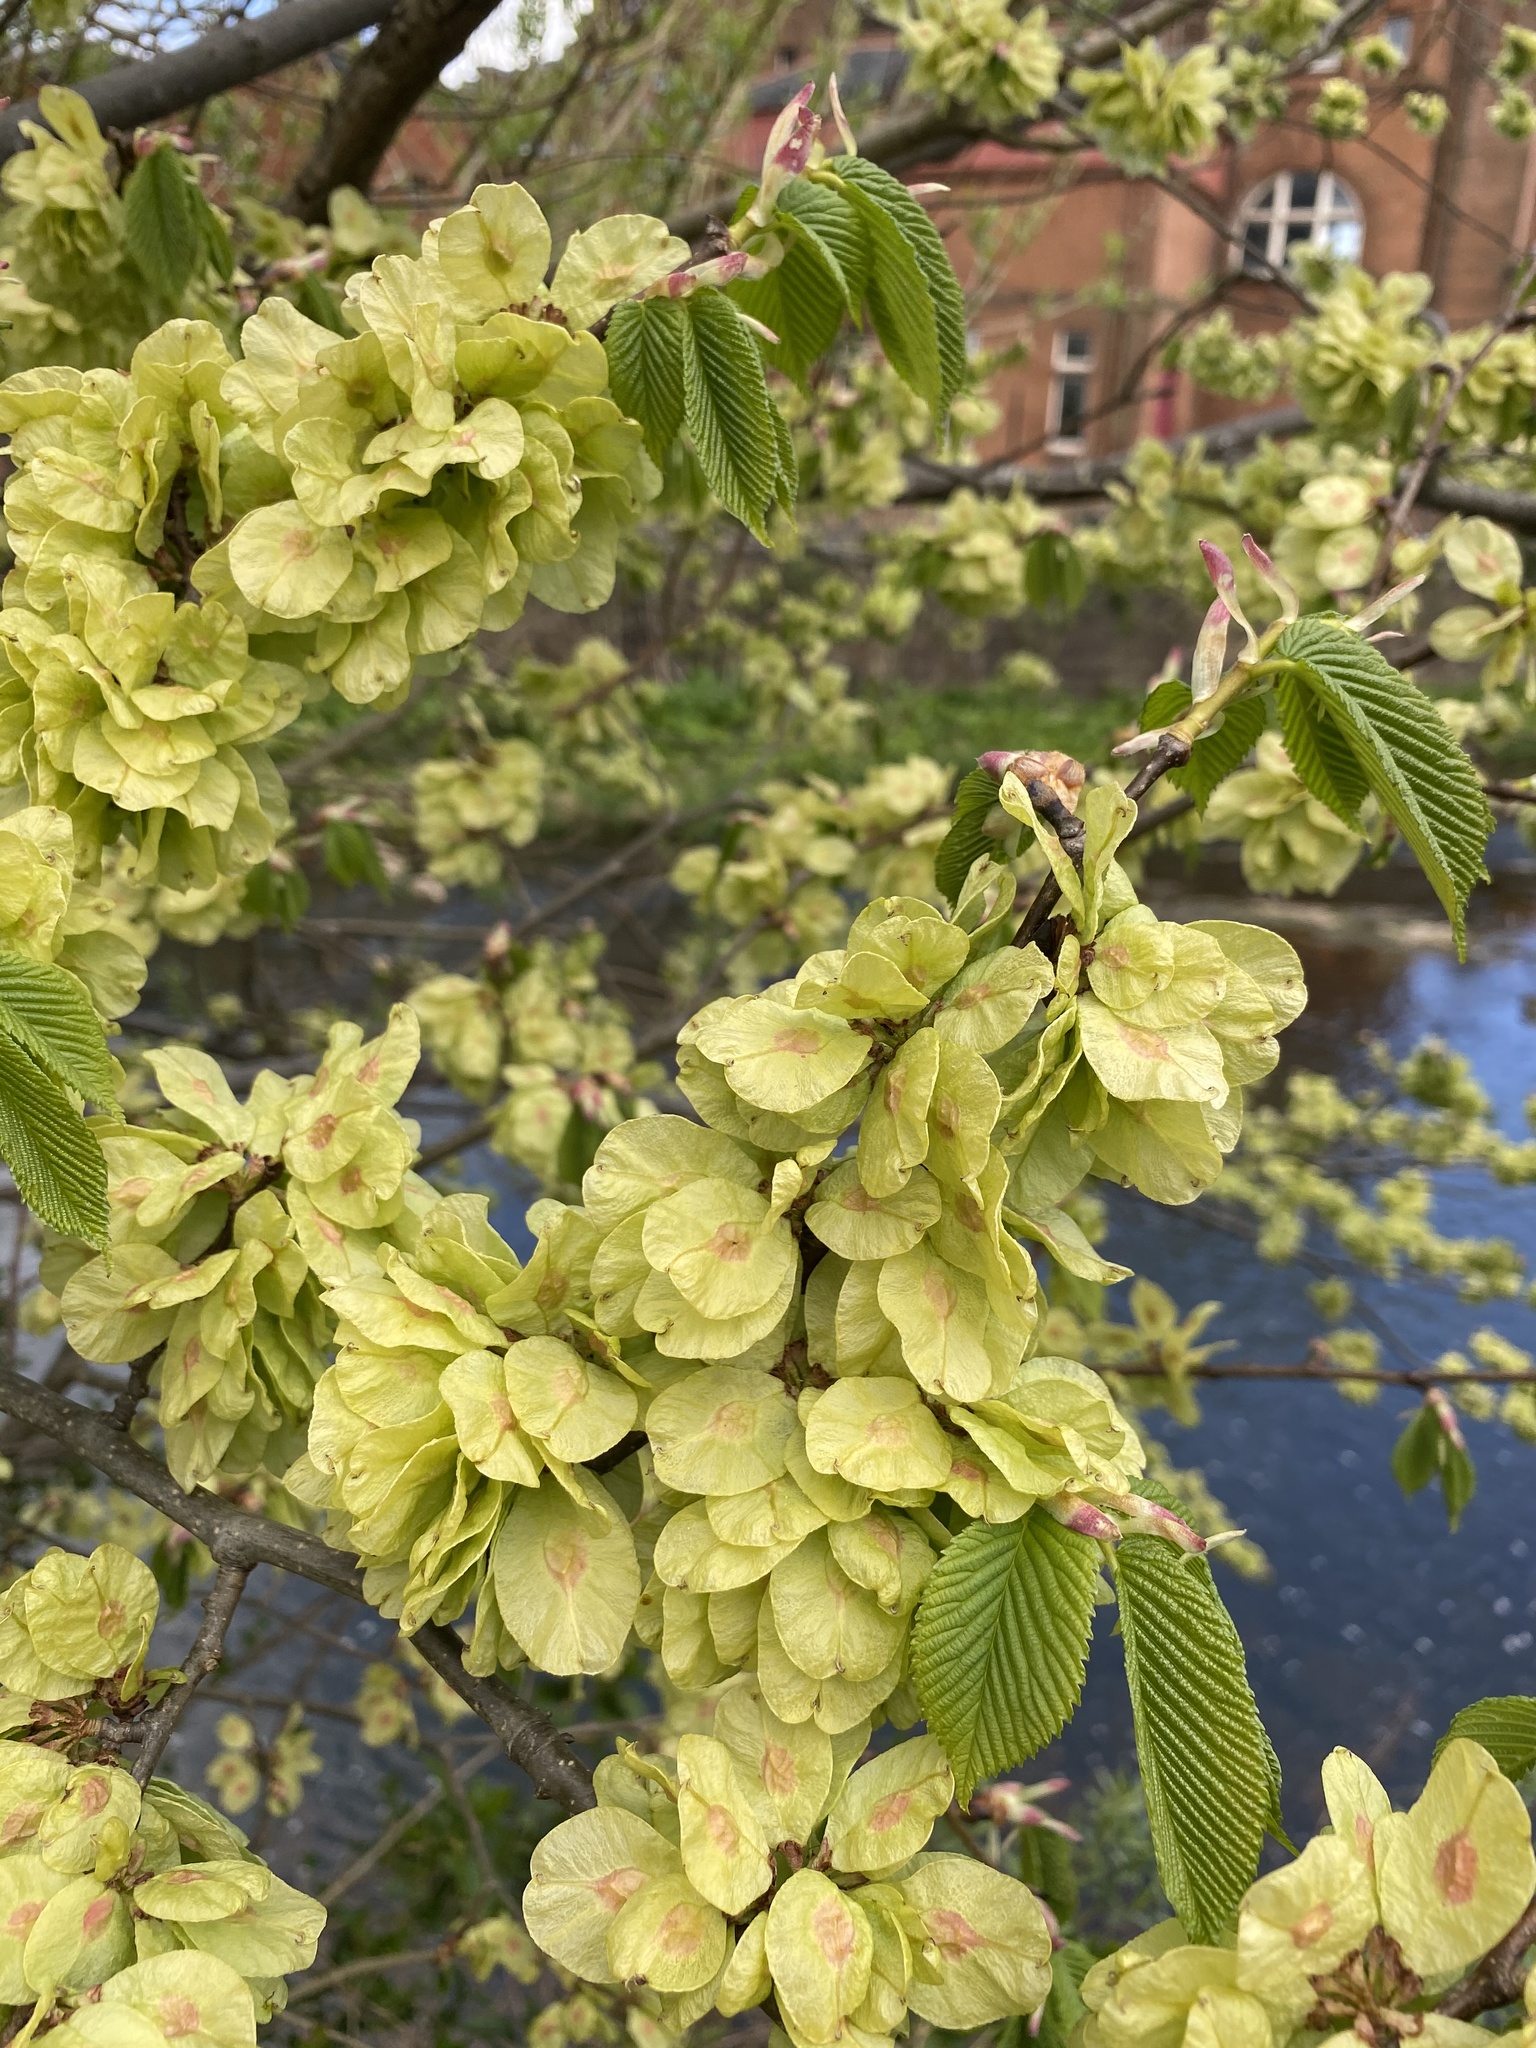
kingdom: Plantae
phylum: Tracheophyta
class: Magnoliopsida
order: Rosales
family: Ulmaceae
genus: Ulmus
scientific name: Ulmus glabra
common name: Wych elm
